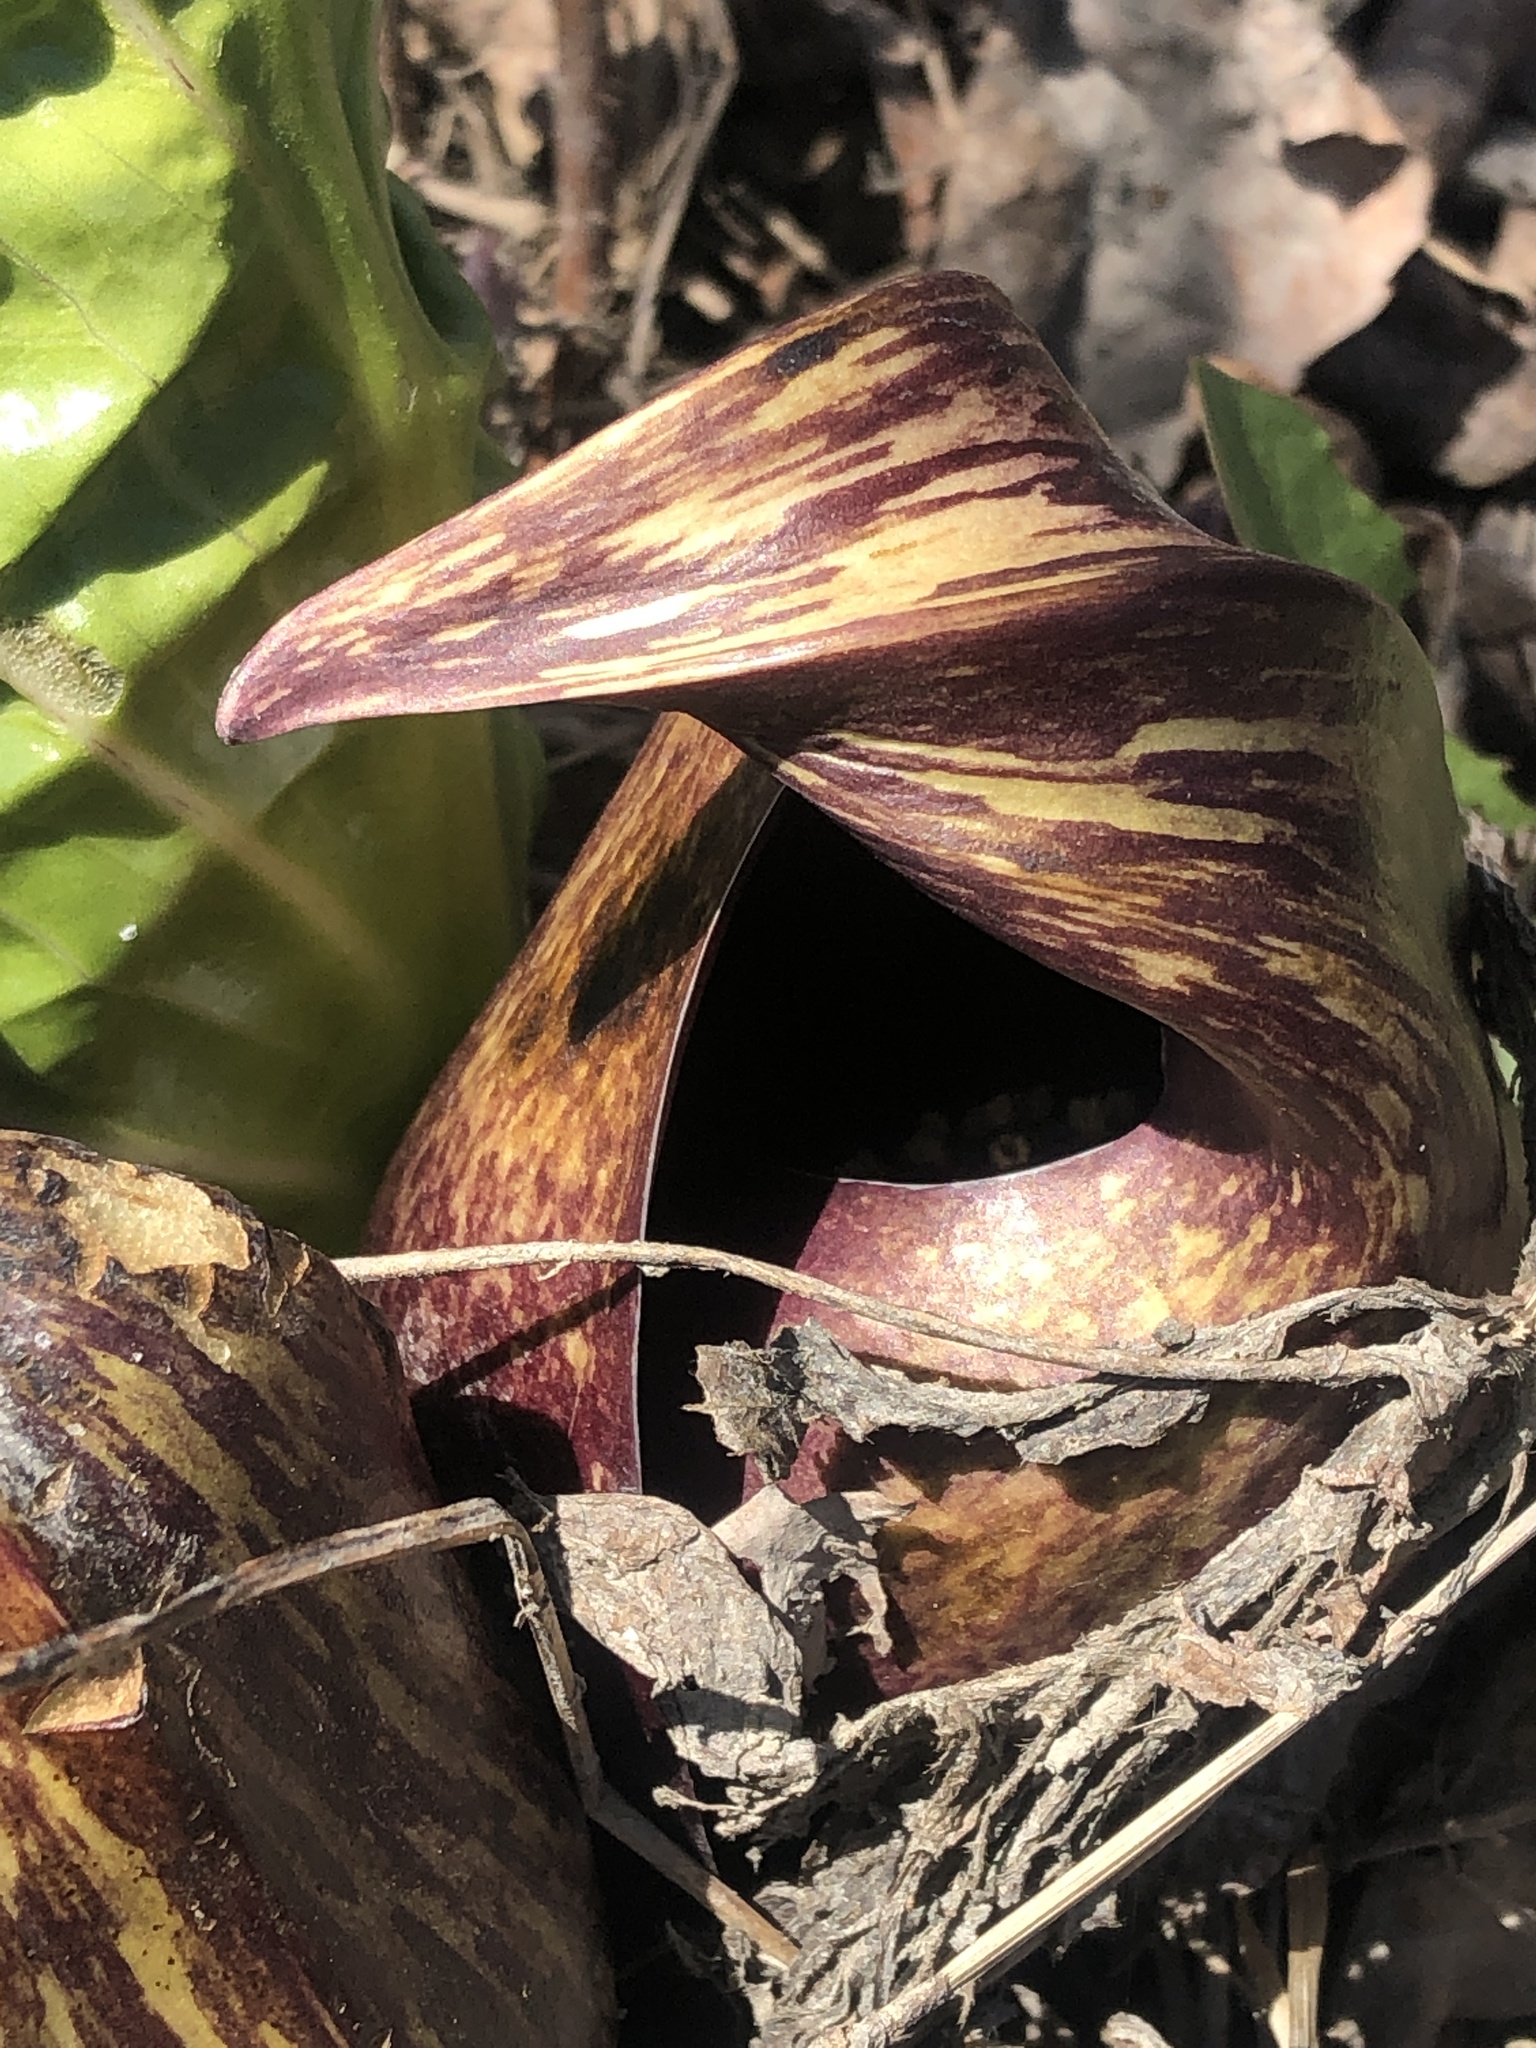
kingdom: Plantae
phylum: Tracheophyta
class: Liliopsida
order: Alismatales
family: Araceae
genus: Symplocarpus
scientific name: Symplocarpus foetidus
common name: Eastern skunk cabbage
